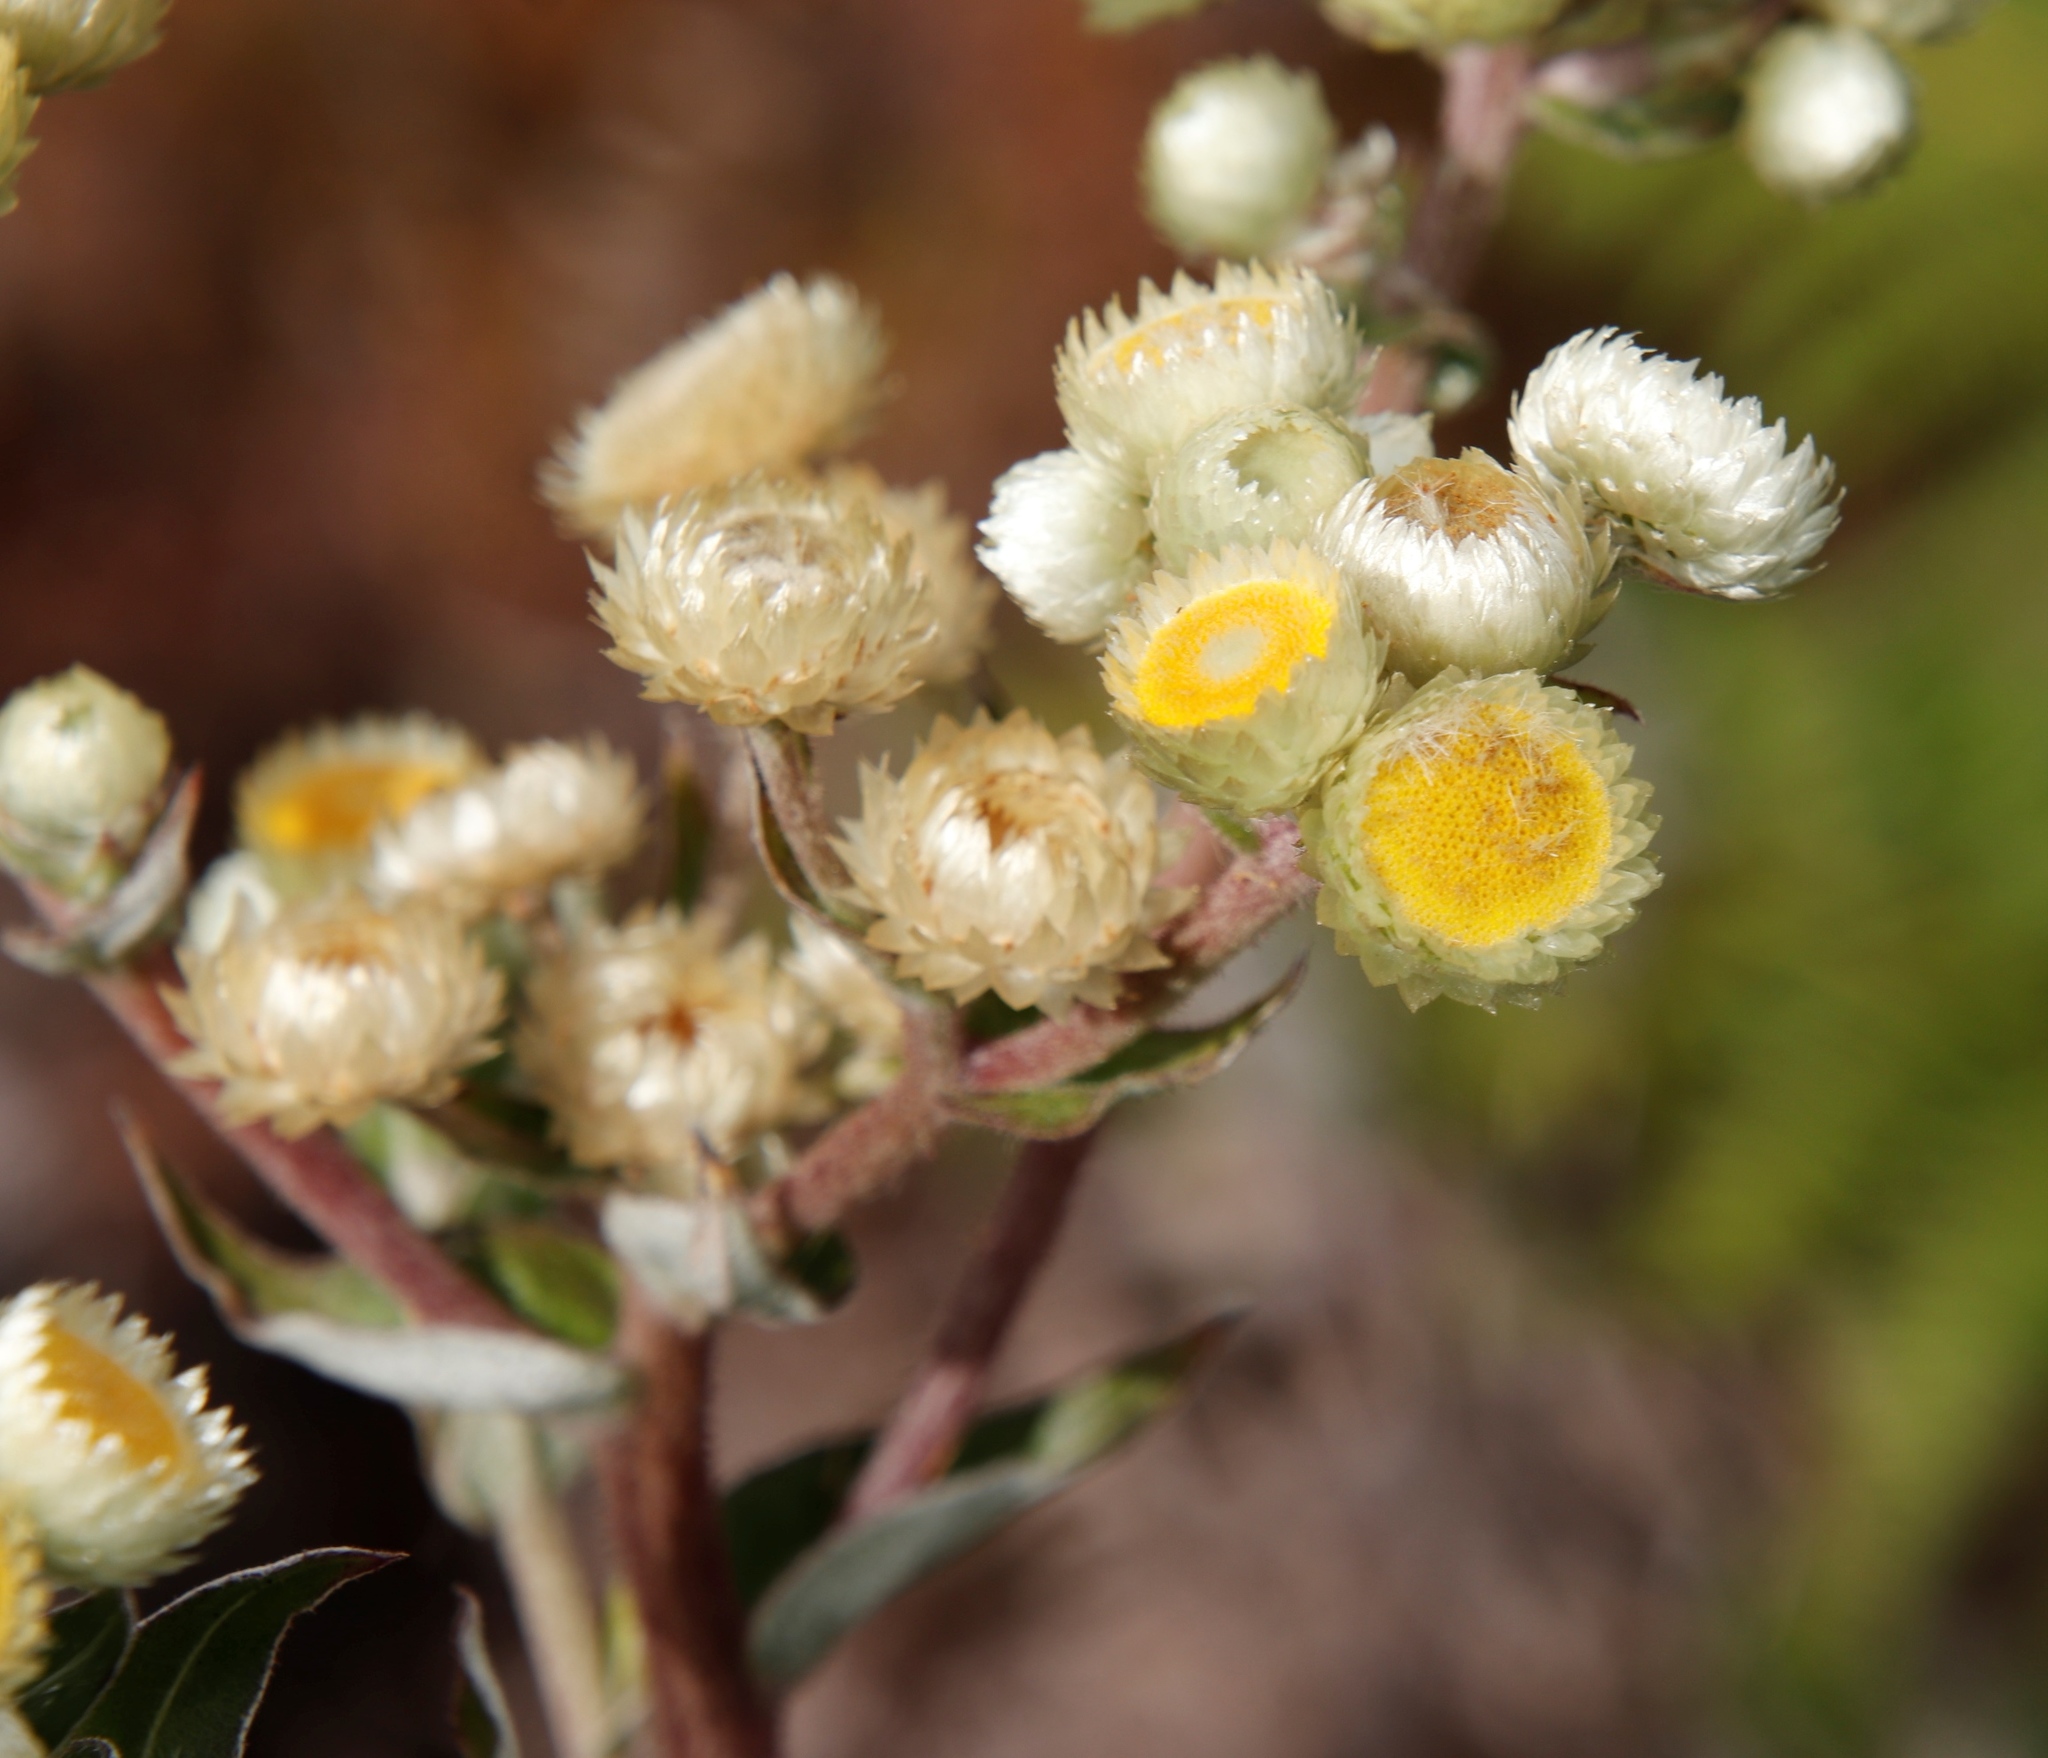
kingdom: Plantae
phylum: Tracheophyta
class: Magnoliopsida
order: Asterales
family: Asteraceae
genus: Helichrysum
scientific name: Helichrysum foetidum
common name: Stinking everlasting
